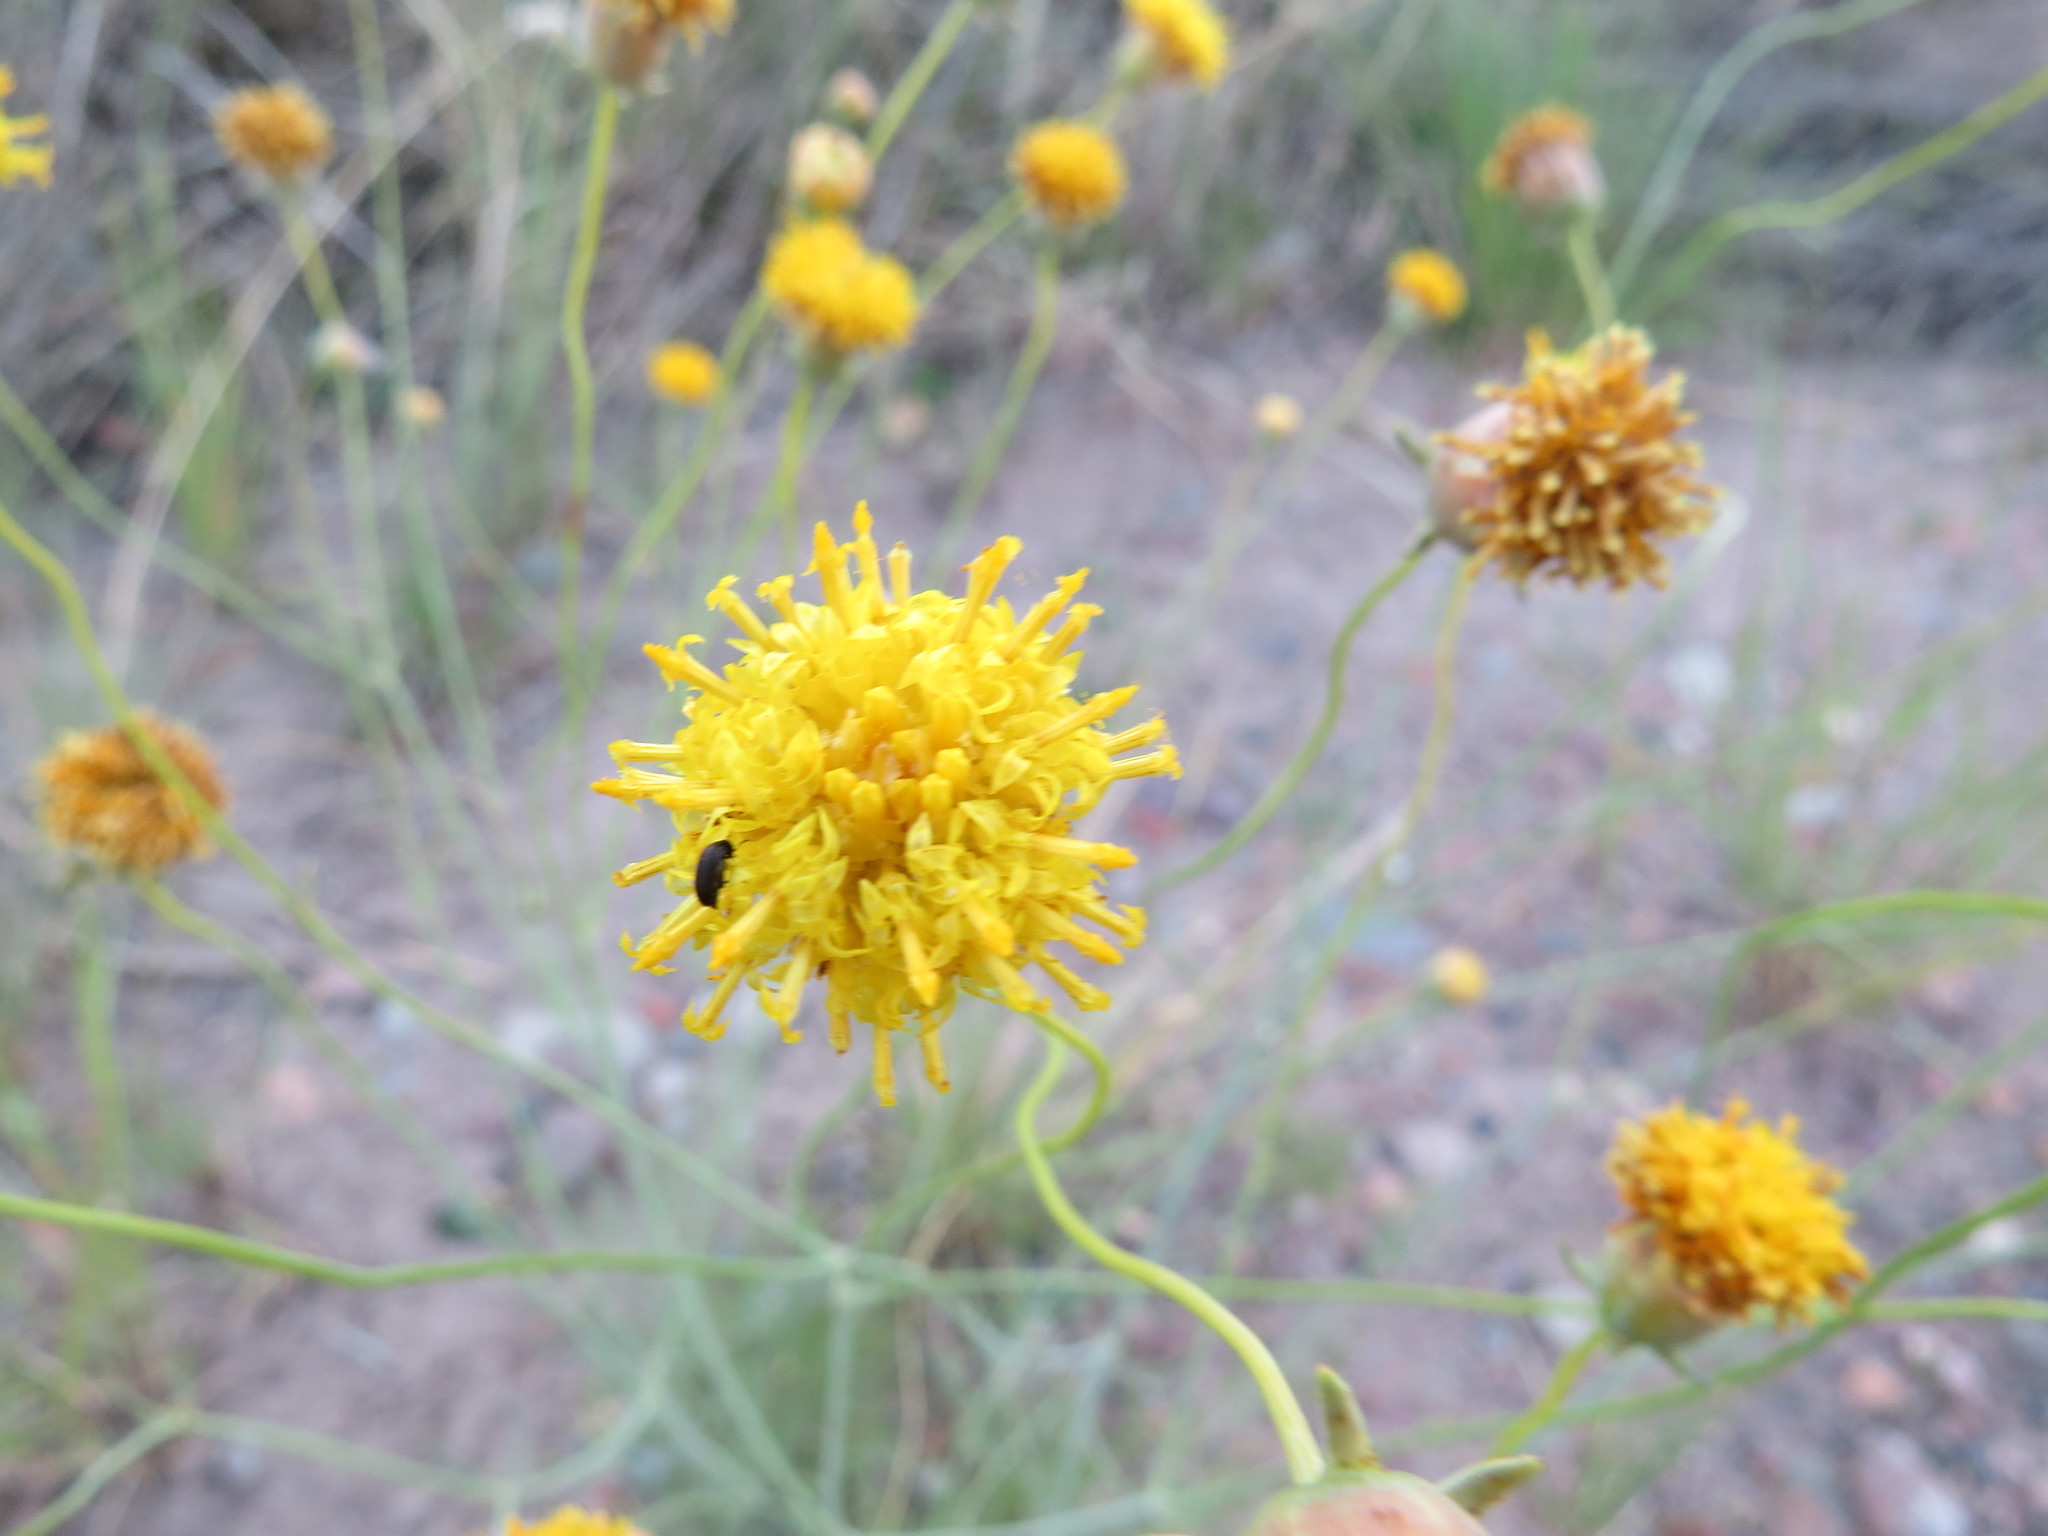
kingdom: Plantae
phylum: Tracheophyta
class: Magnoliopsida
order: Asterales
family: Asteraceae
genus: Thelesperma
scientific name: Thelesperma megapotamicum
